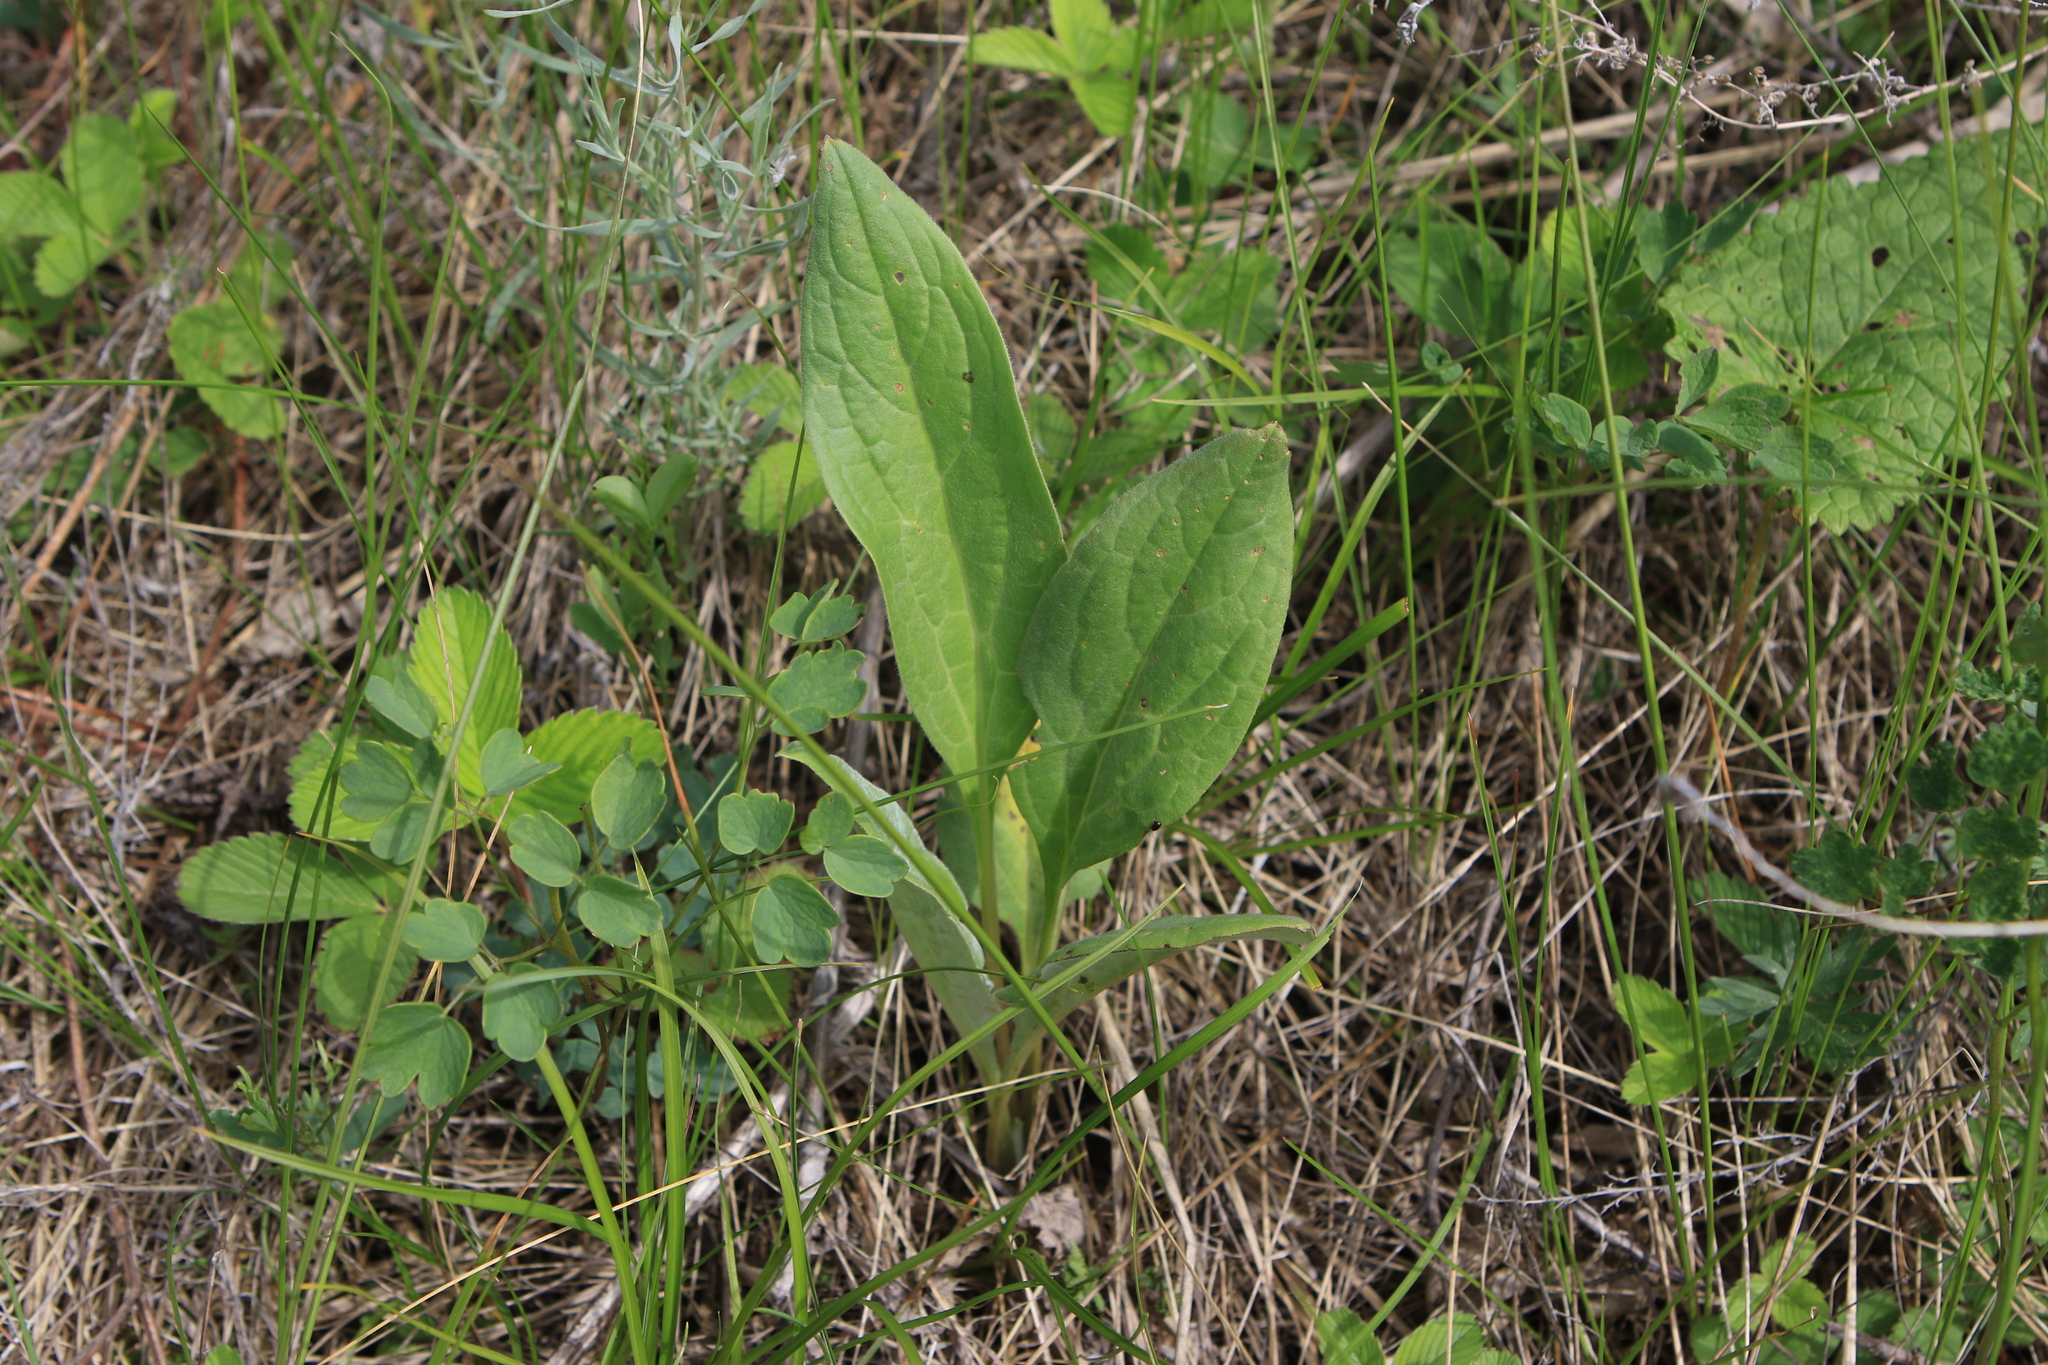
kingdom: Plantae
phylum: Tracheophyta
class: Magnoliopsida
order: Boraginales
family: Boraginaceae
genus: Cynoglossum
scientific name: Cynoglossum officinale
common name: Hound's-tongue
